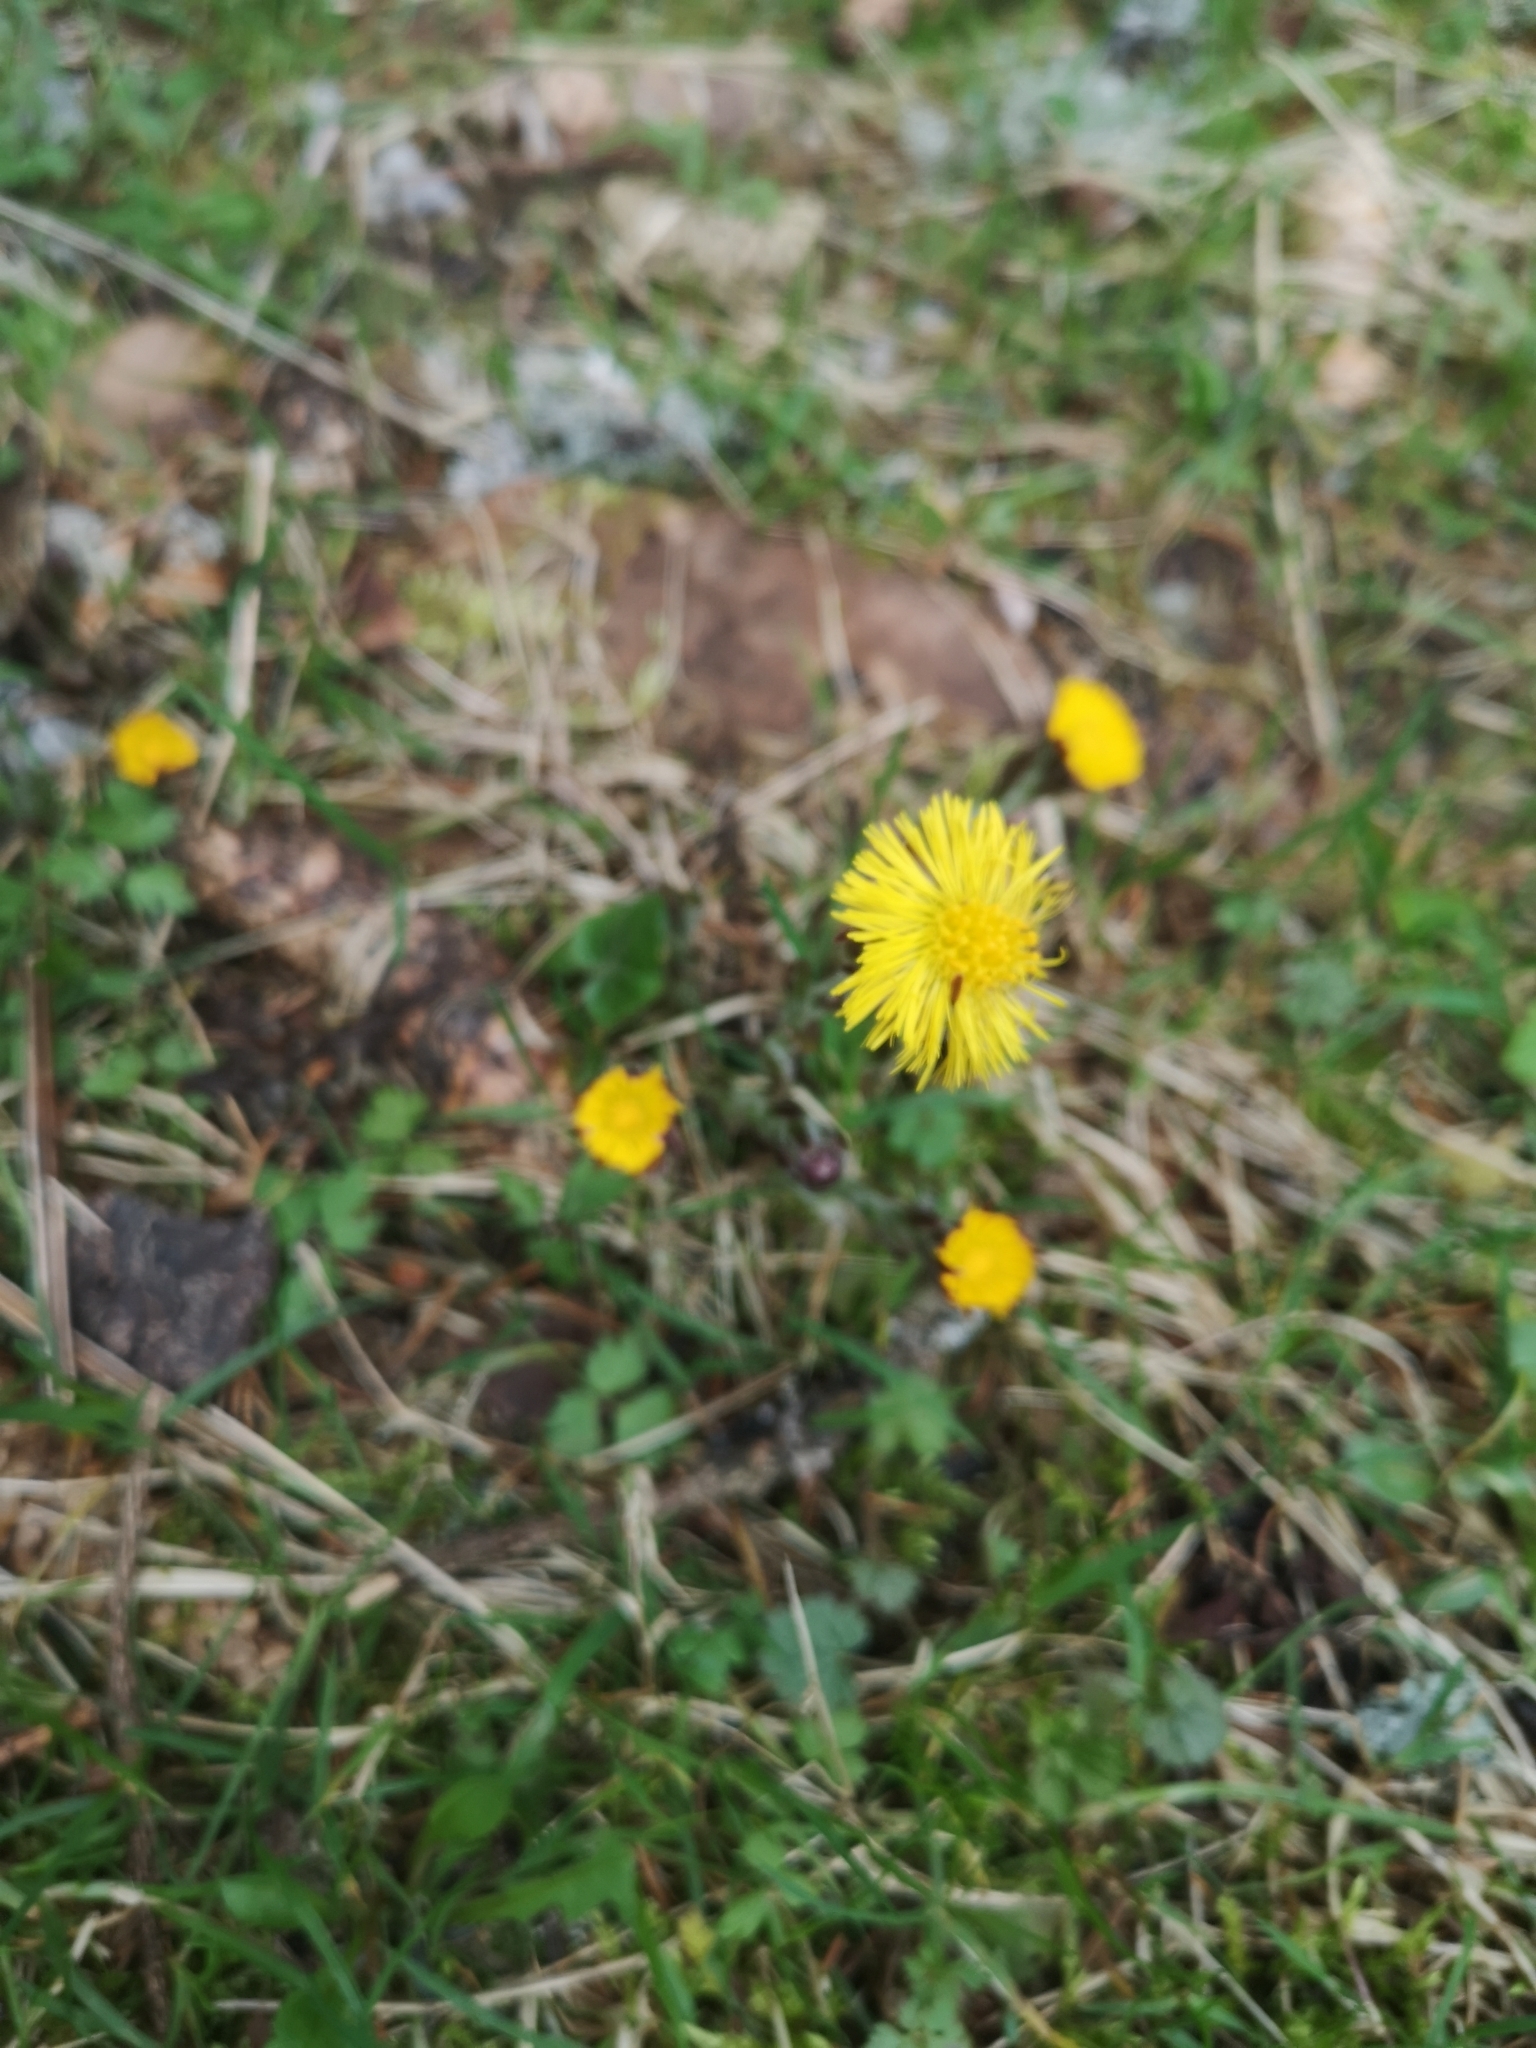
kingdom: Plantae
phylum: Tracheophyta
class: Magnoliopsida
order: Asterales
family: Asteraceae
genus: Tussilago
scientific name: Tussilago farfara
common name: Coltsfoot
